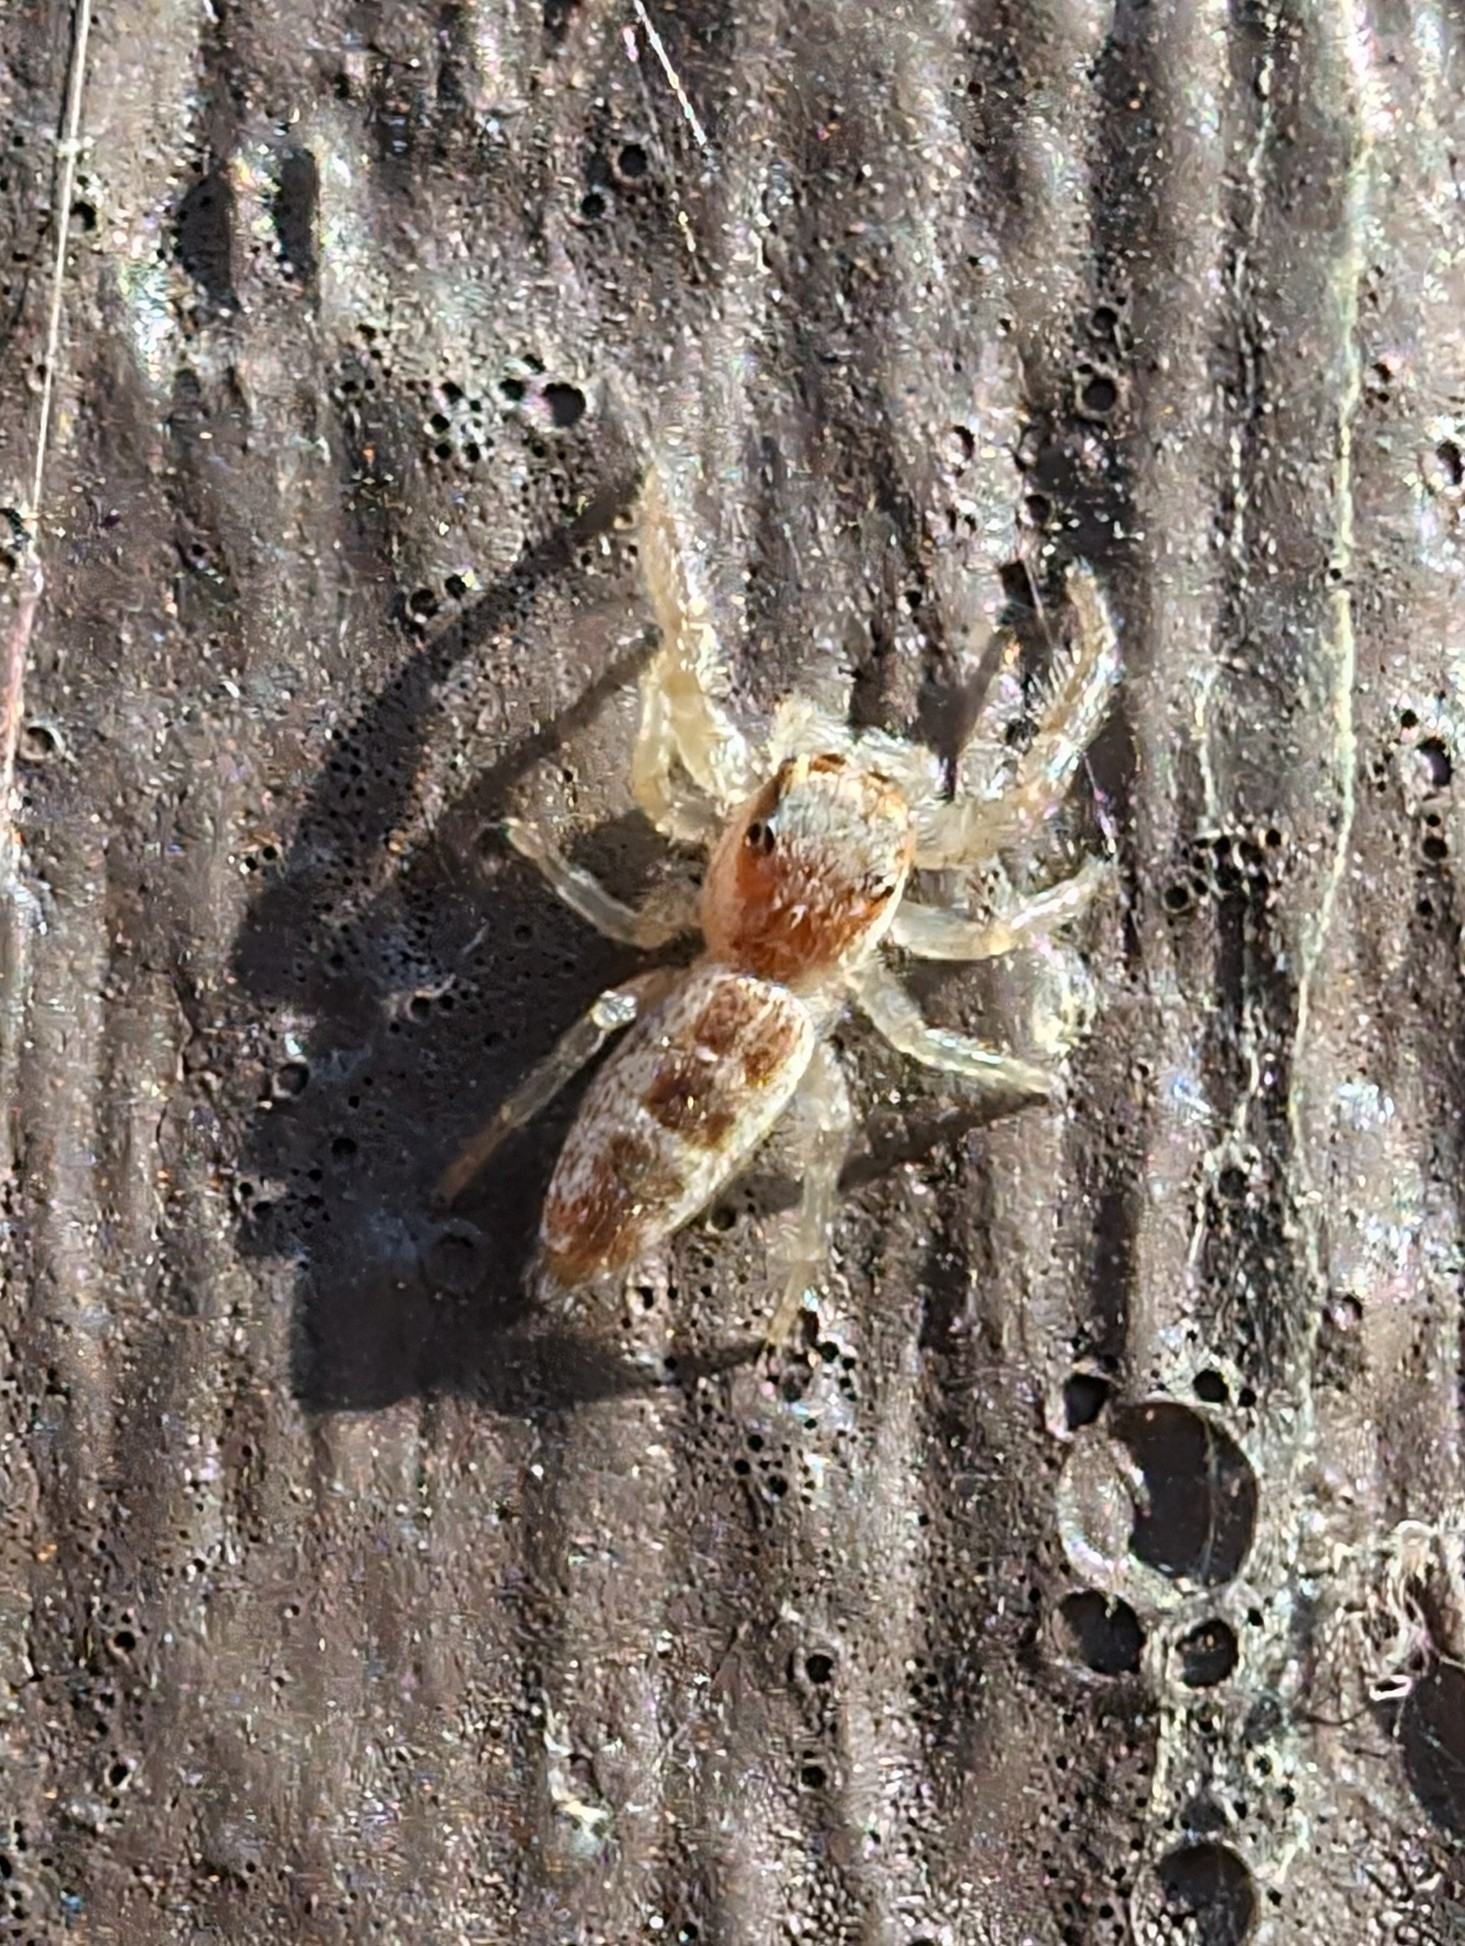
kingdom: Animalia
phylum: Arthropoda
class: Arachnida
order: Araneae
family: Salticidae
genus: Hentzia
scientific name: Hentzia mitrata
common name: White-jawed jumping spider
